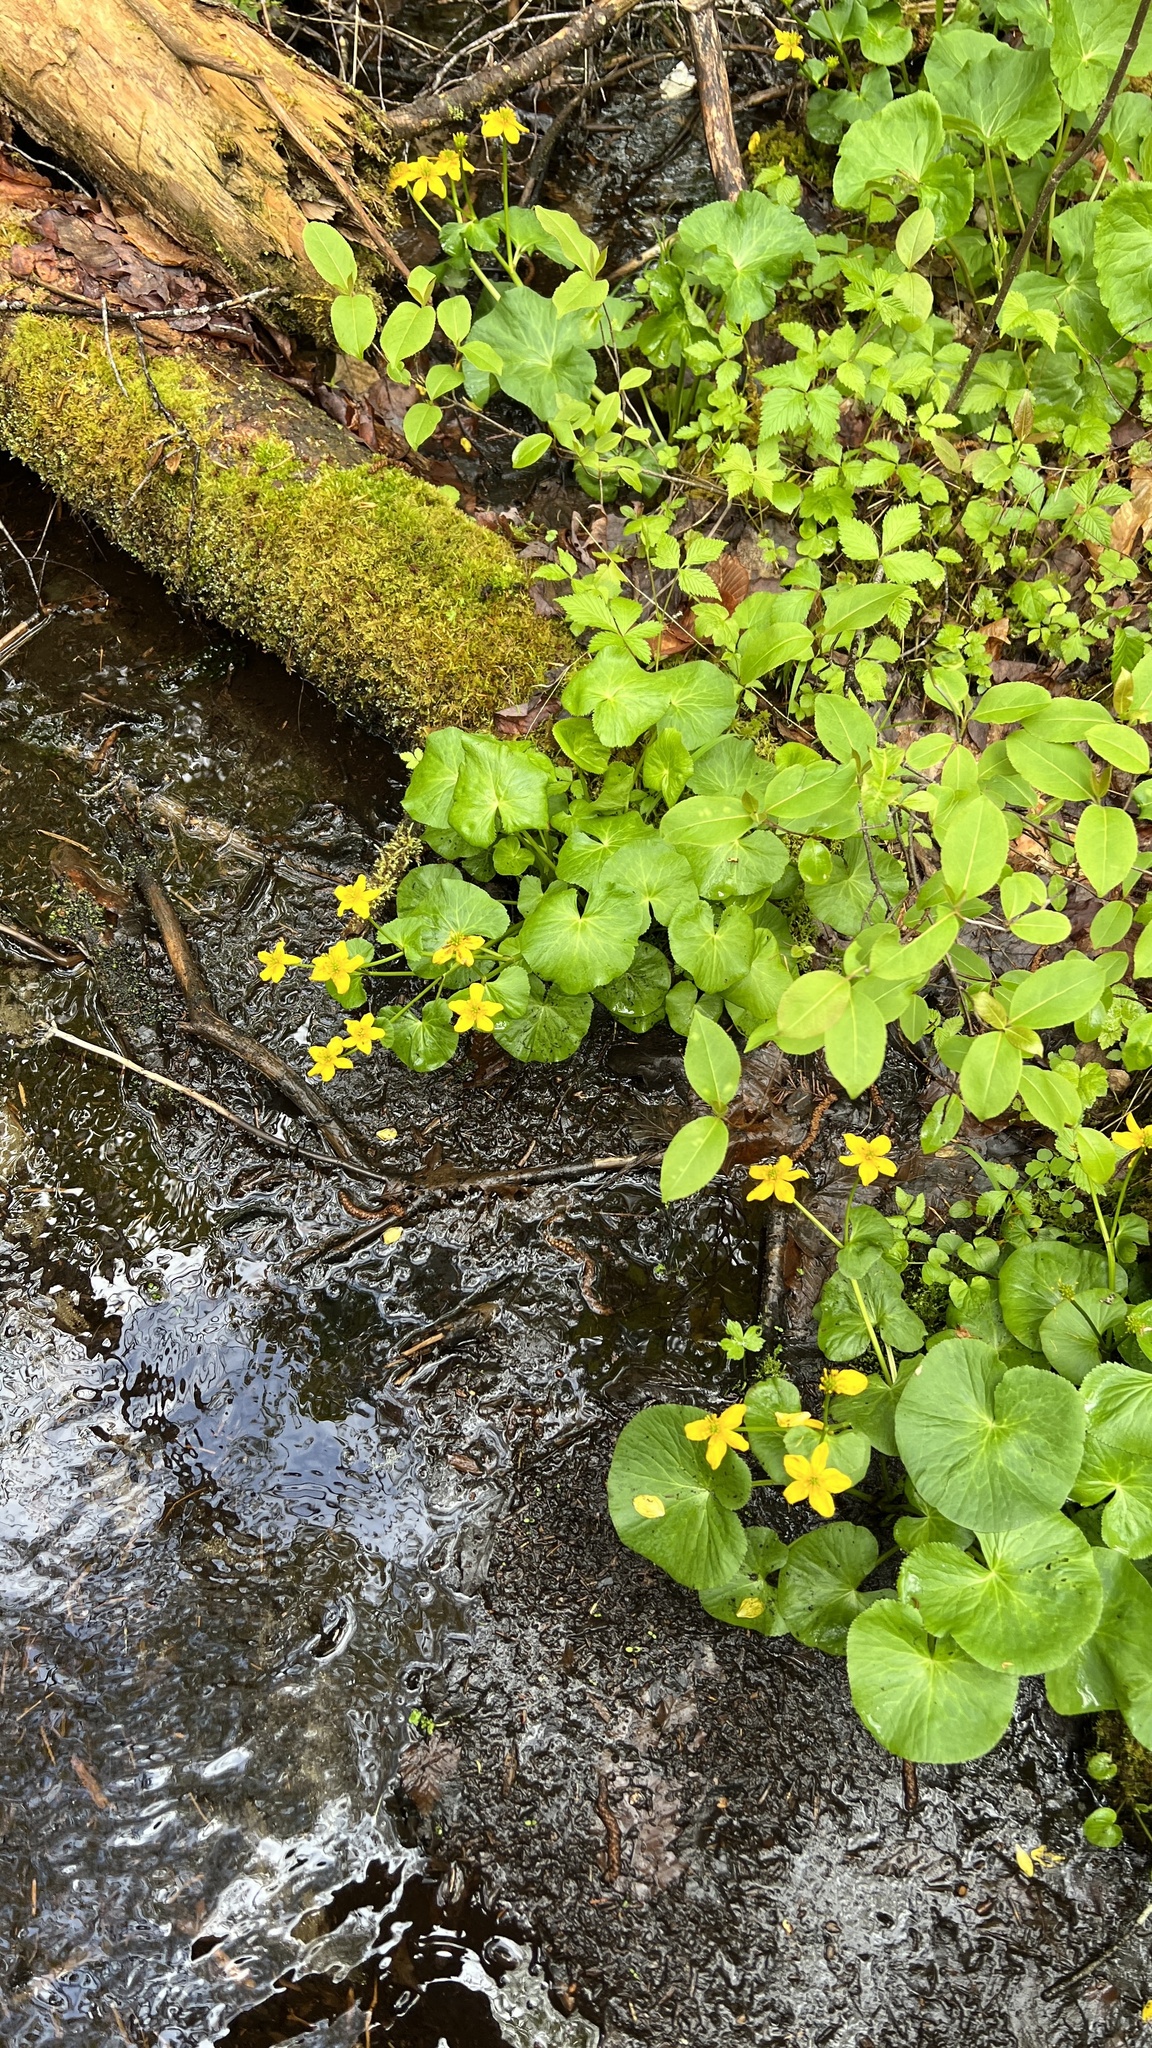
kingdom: Plantae
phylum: Tracheophyta
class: Magnoliopsida
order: Ranunculales
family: Ranunculaceae
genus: Caltha
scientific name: Caltha palustris
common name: Marsh marigold
